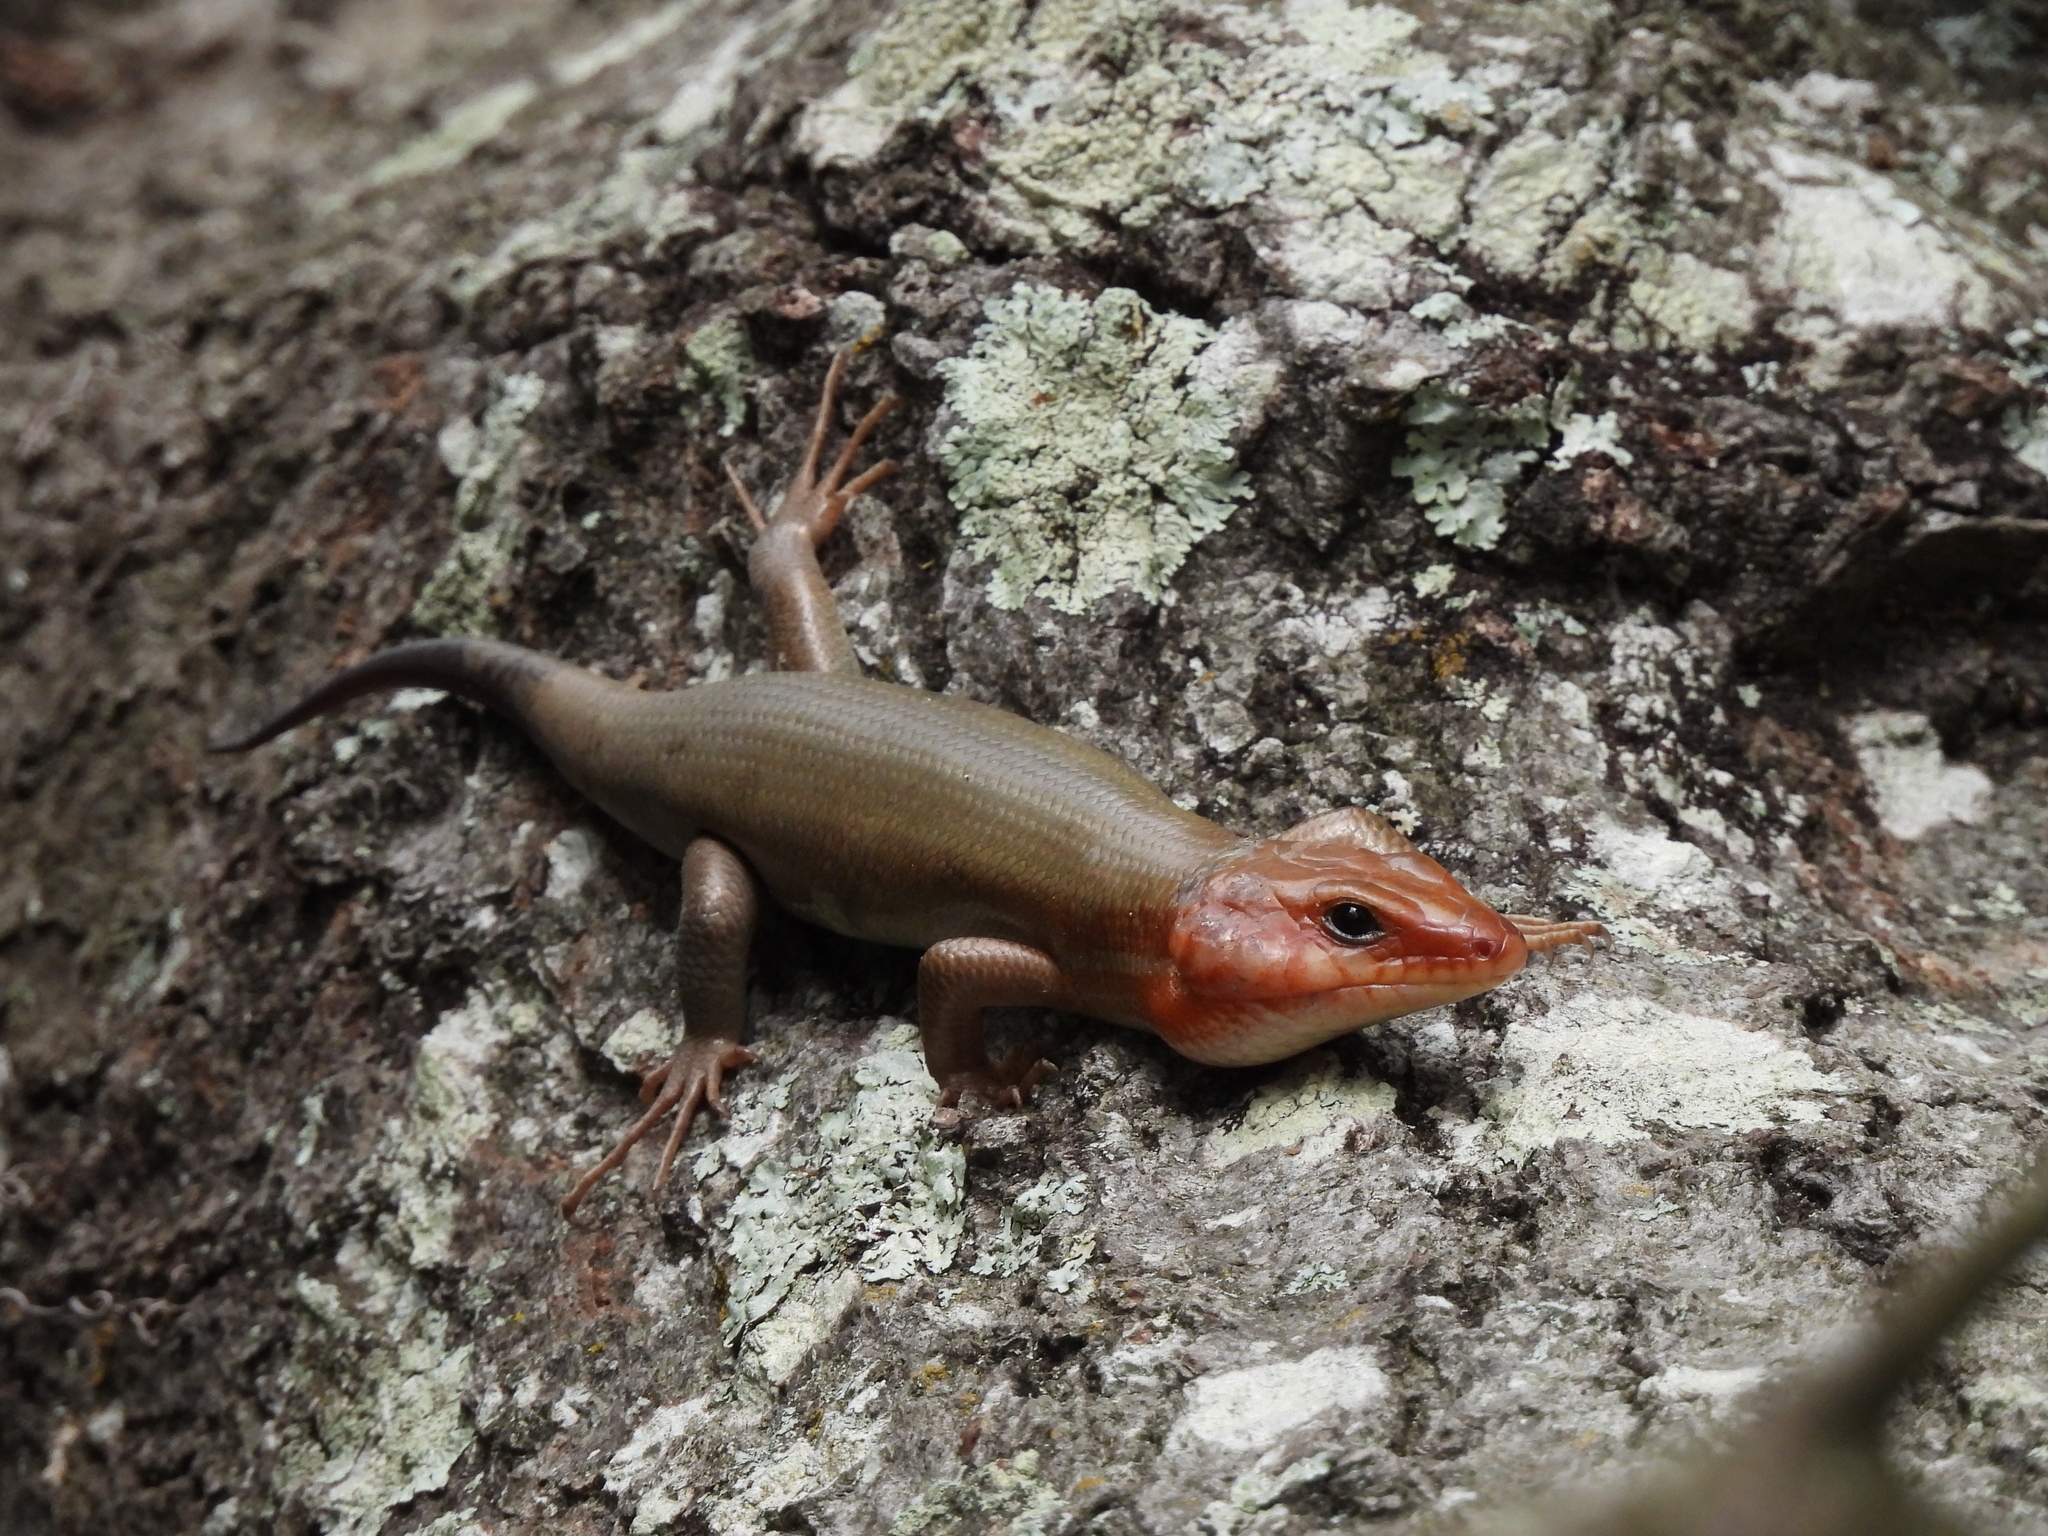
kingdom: Animalia
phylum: Chordata
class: Squamata
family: Scincidae
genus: Plestiodon
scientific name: Plestiodon laticeps
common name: Broadhead skink
